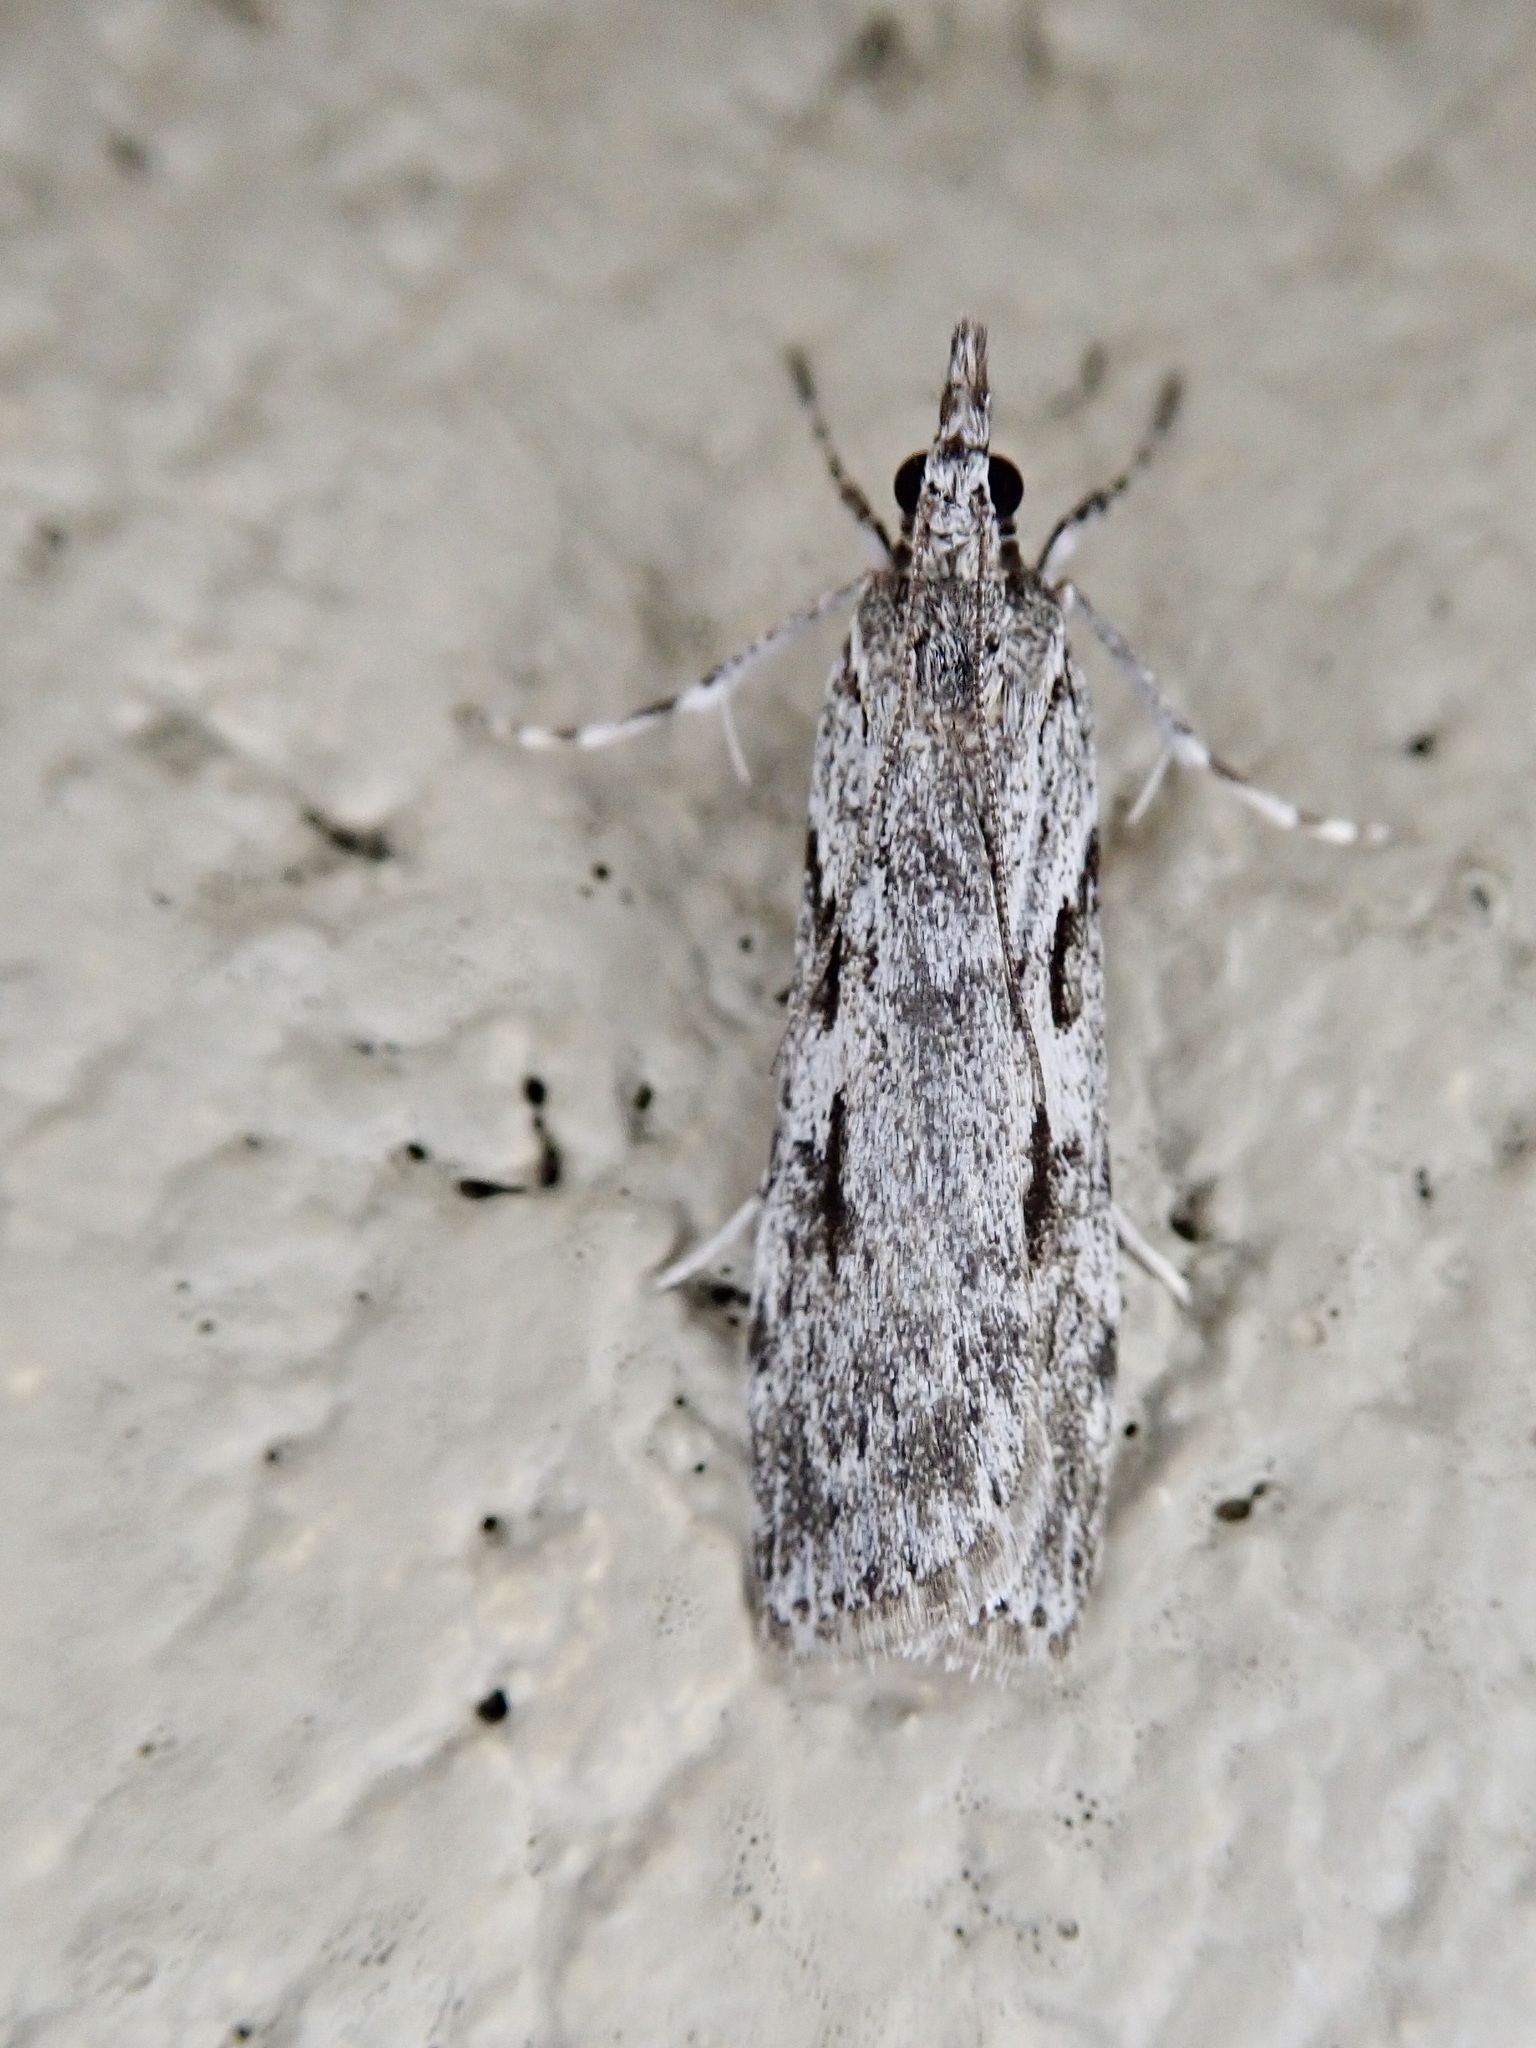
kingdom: Animalia
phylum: Arthropoda
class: Insecta
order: Lepidoptera
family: Crambidae
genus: Scoparia
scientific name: Scoparia halopis
